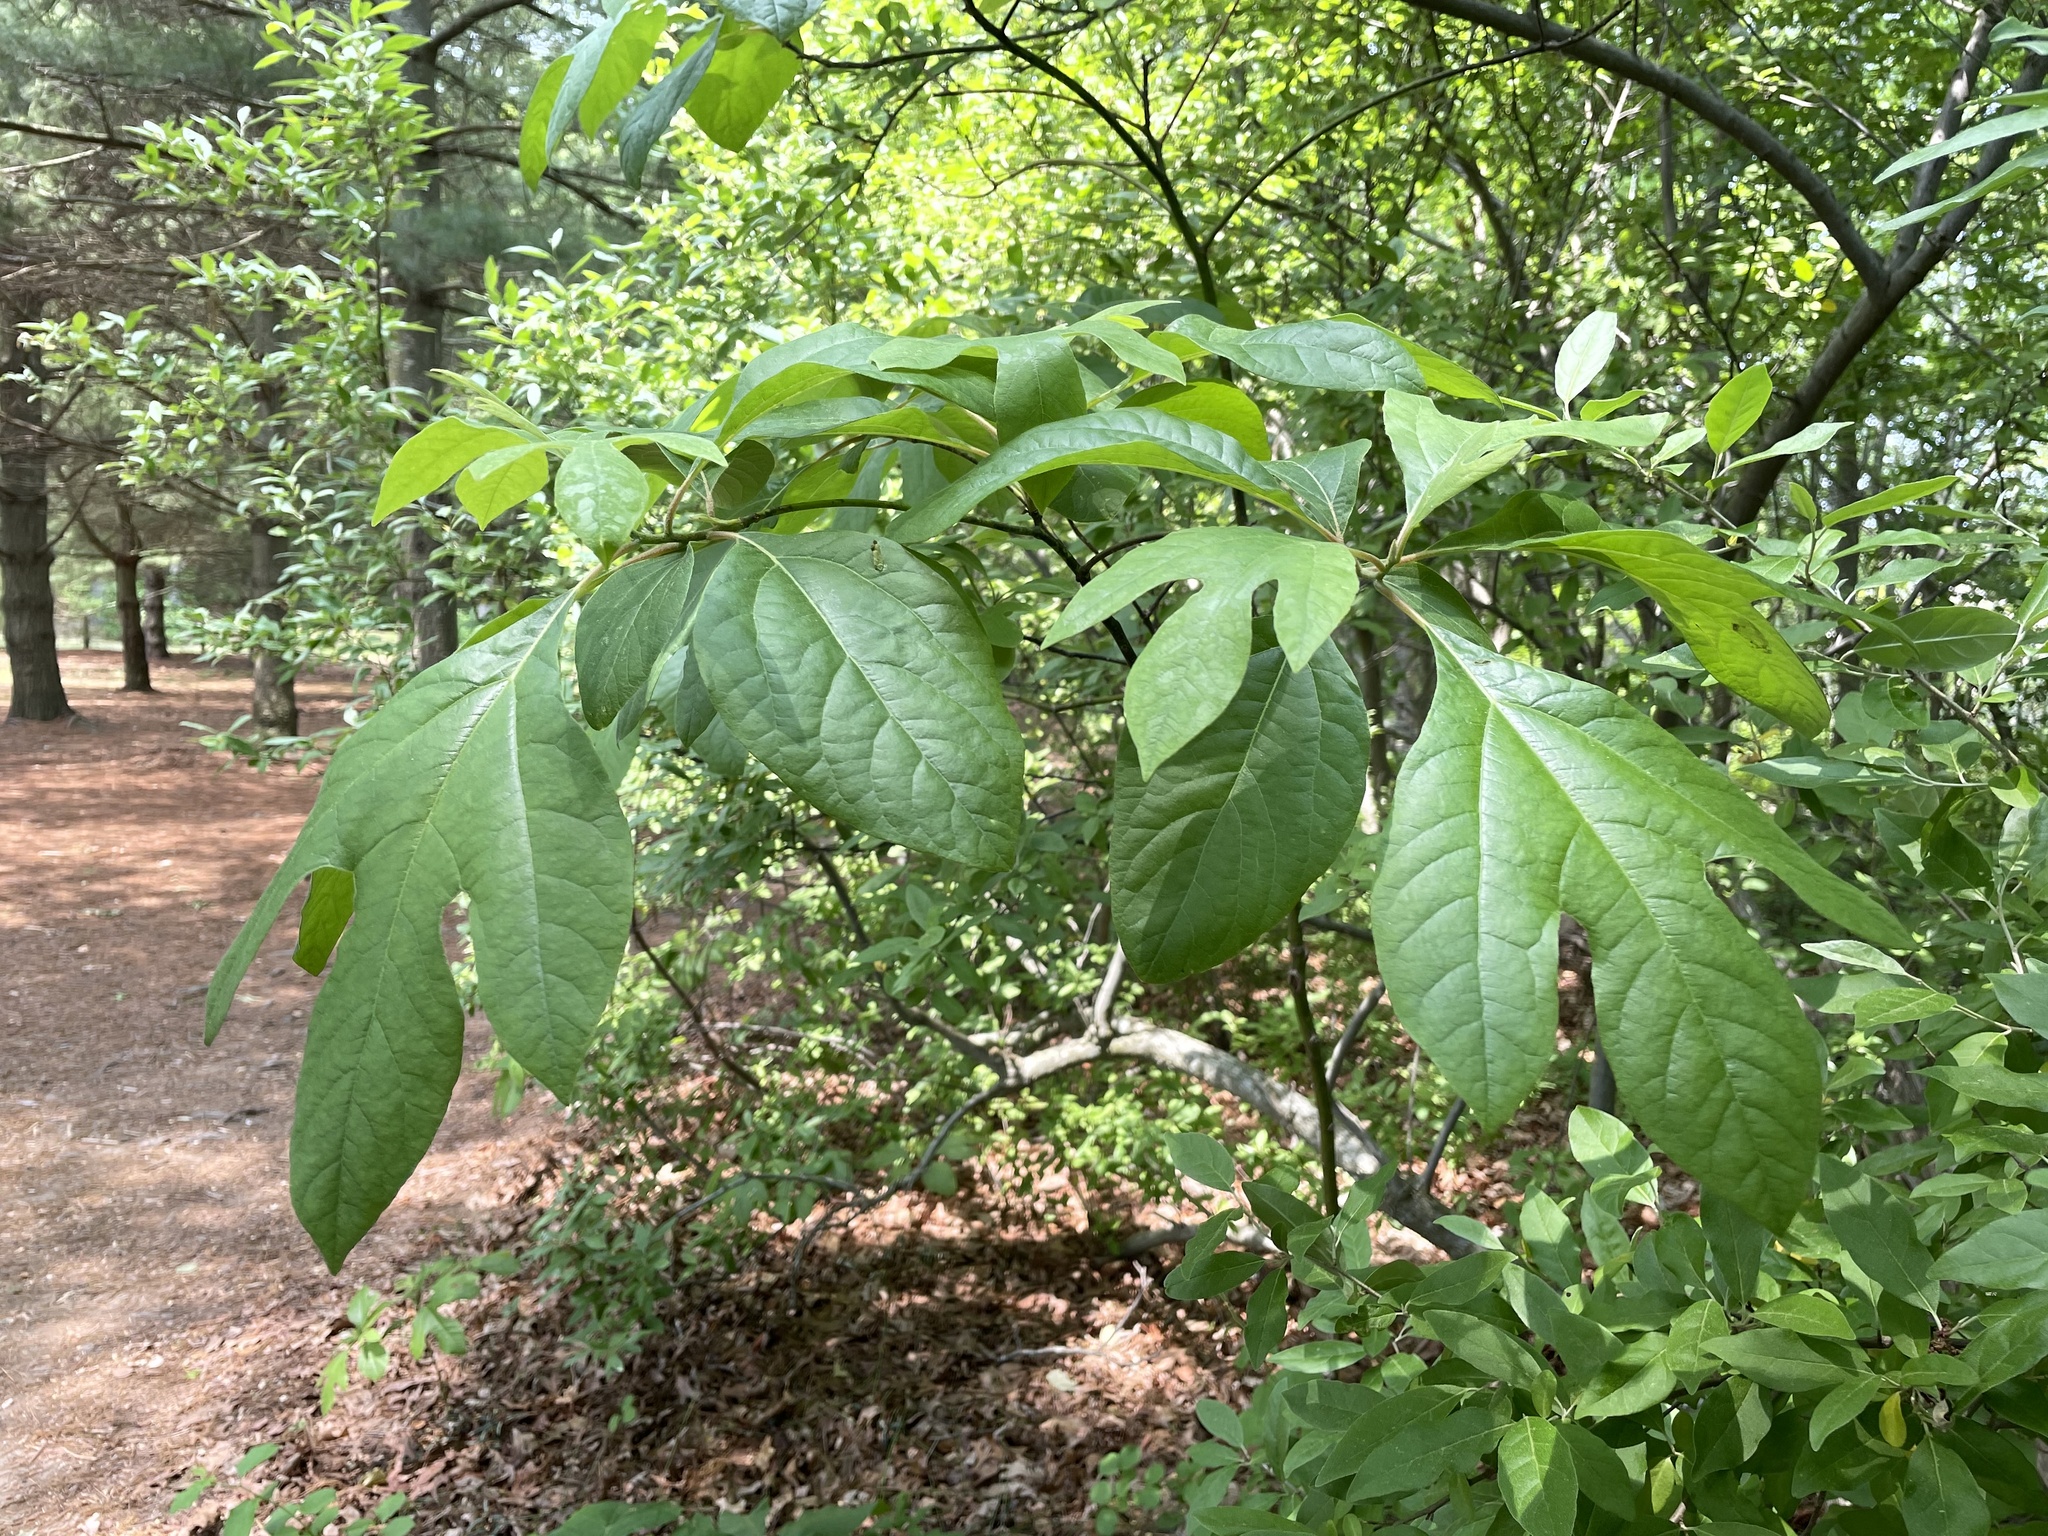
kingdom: Plantae
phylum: Tracheophyta
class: Magnoliopsida
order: Laurales
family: Lauraceae
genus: Sassafras
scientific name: Sassafras albidum
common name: Sassafras
